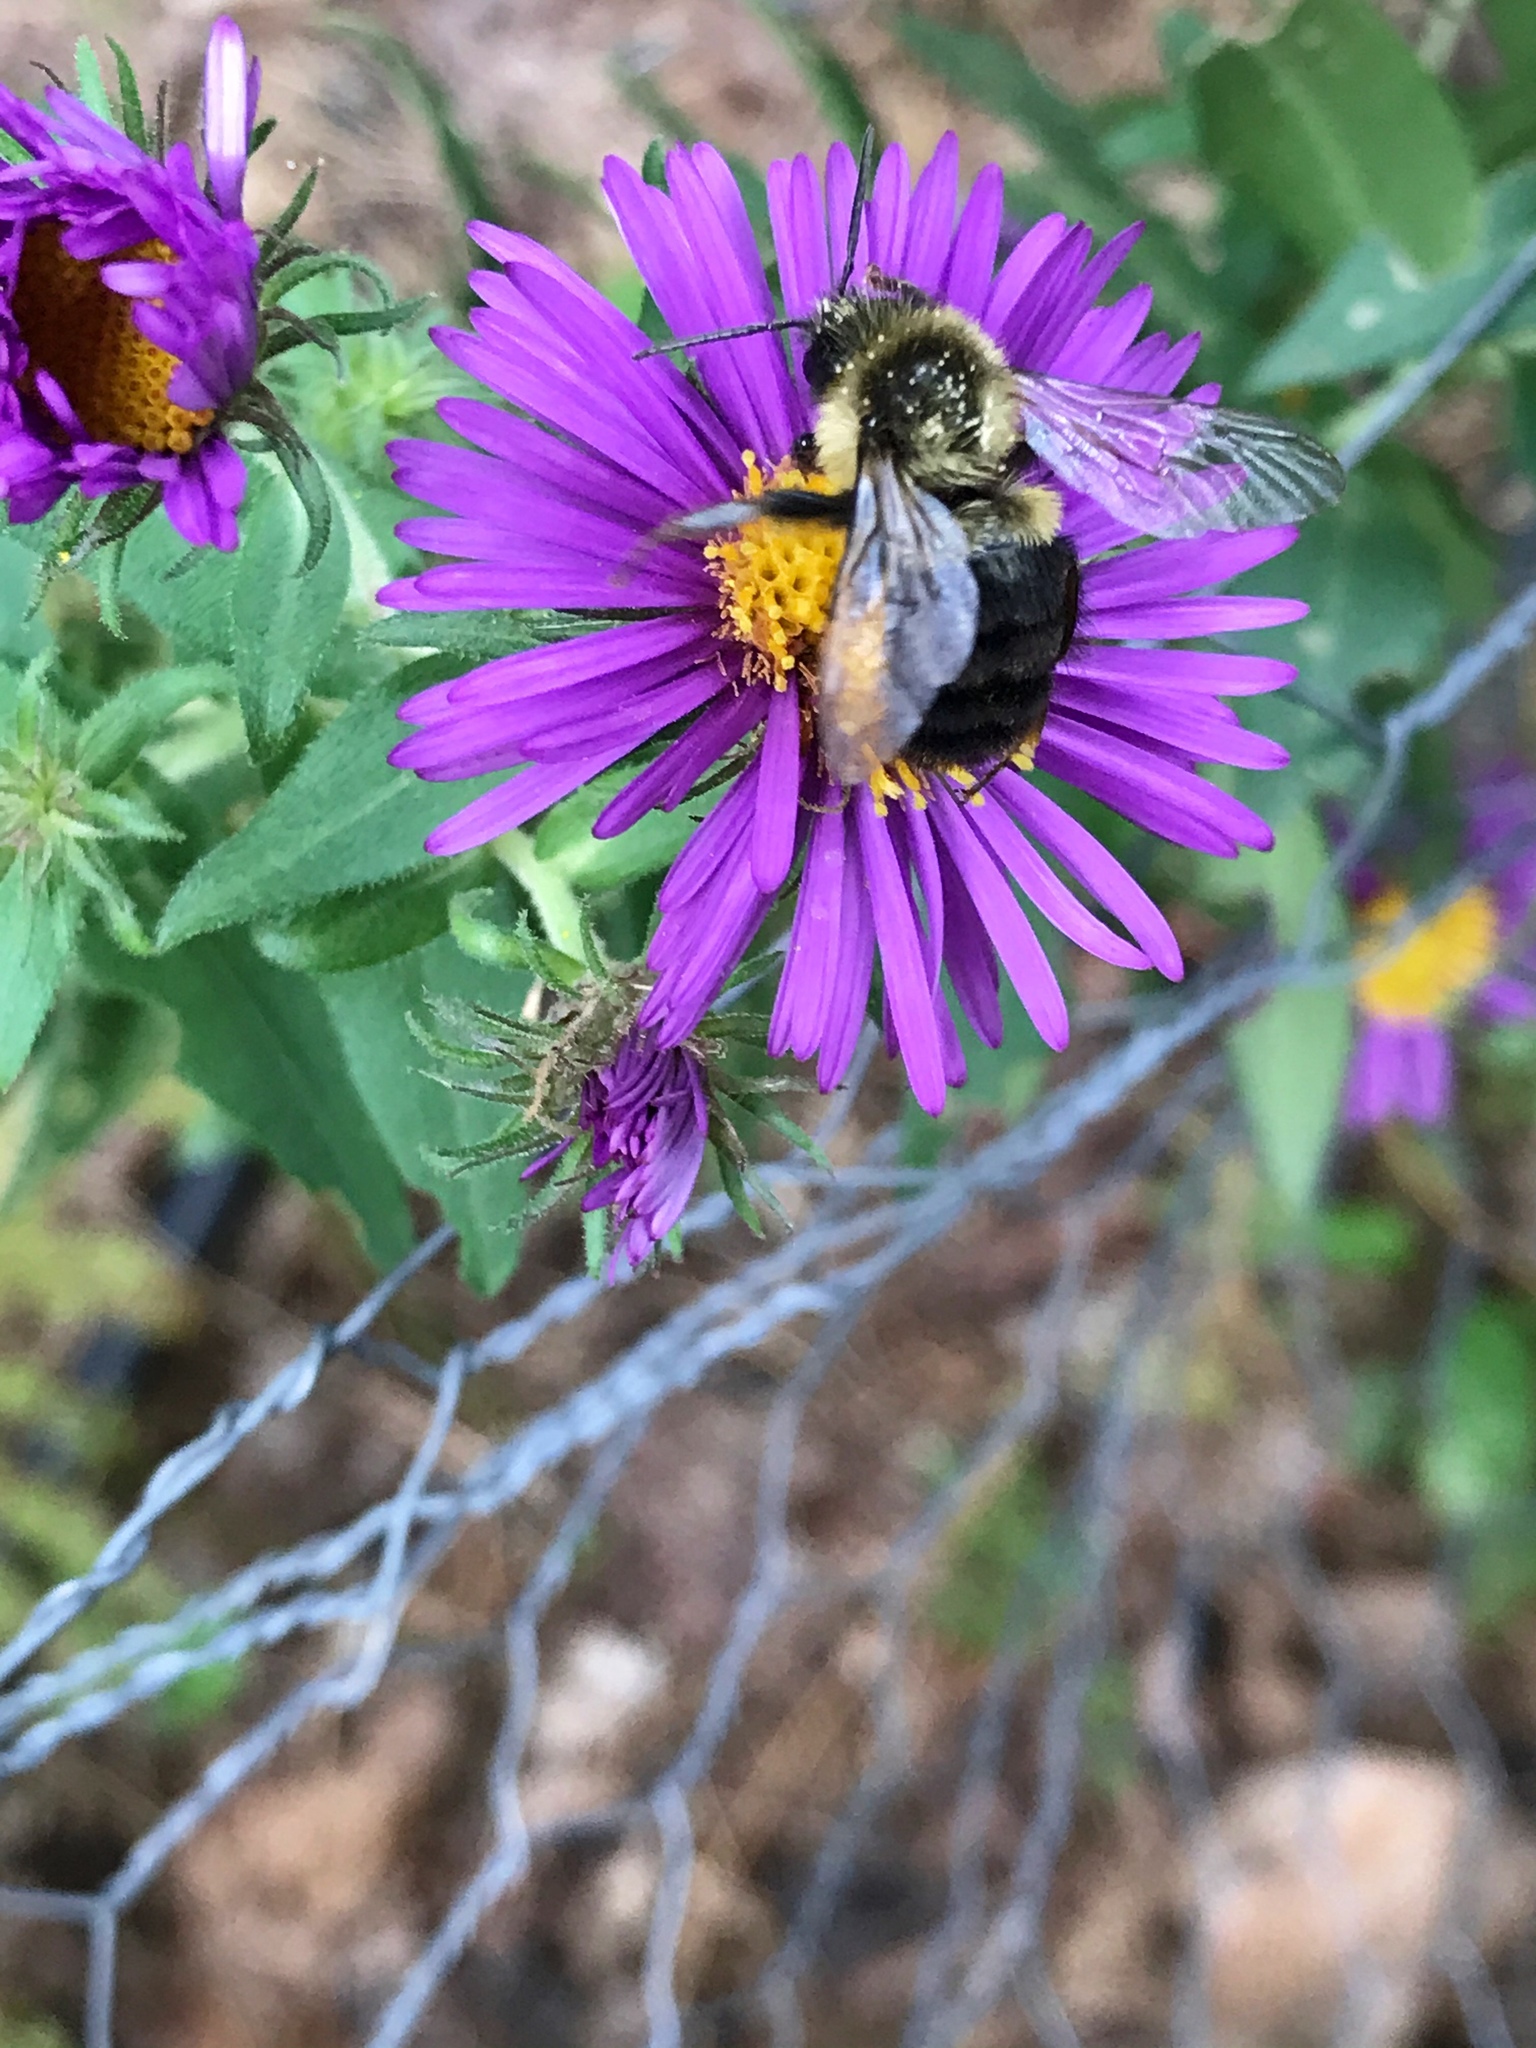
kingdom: Animalia
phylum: Arthropoda
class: Insecta
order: Hymenoptera
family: Apidae
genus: Bombus
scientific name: Bombus impatiens
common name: Common eastern bumble bee
